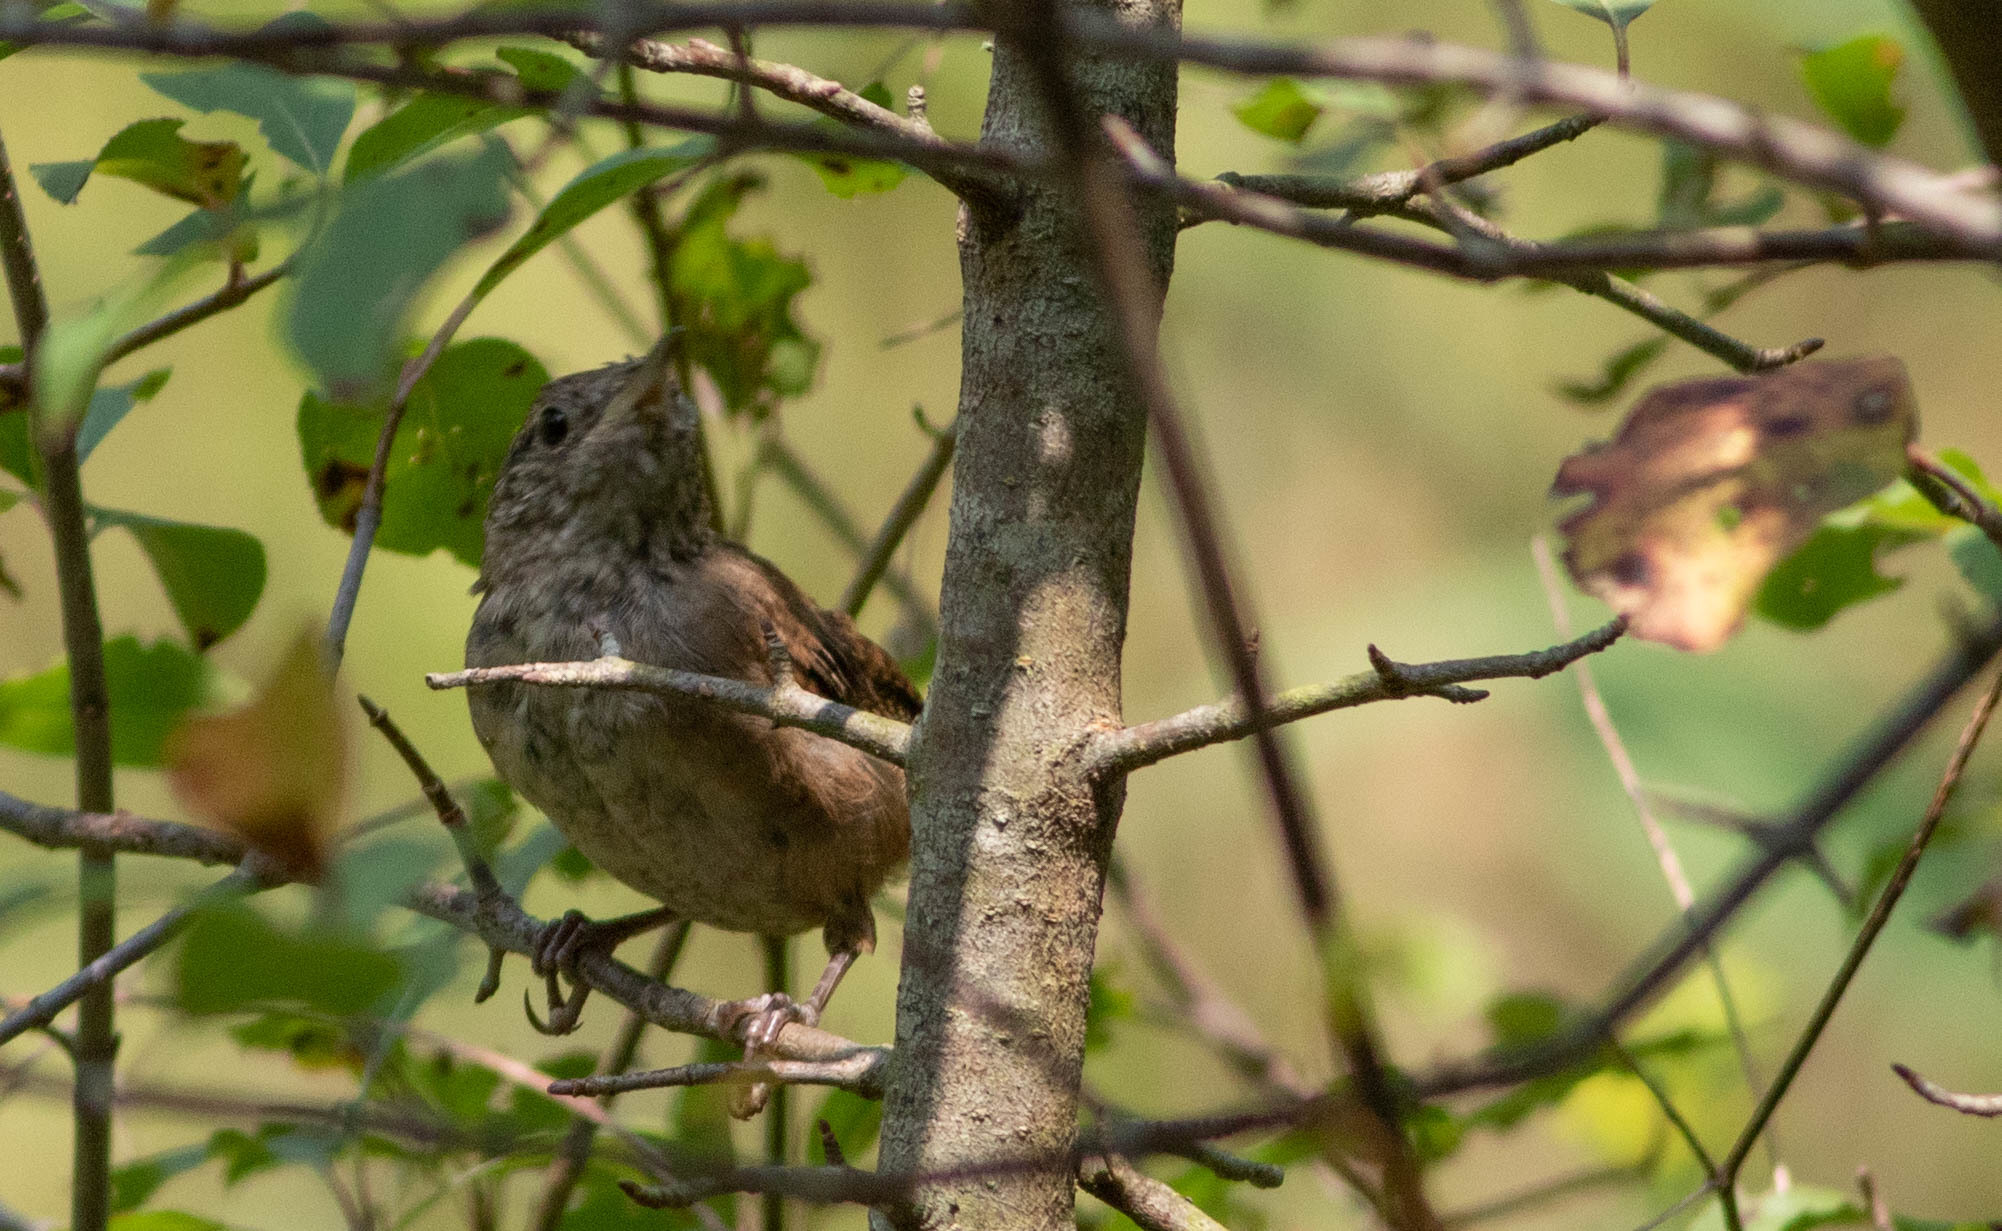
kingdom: Animalia
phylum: Chordata
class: Aves
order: Passeriformes
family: Troglodytidae
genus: Troglodytes
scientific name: Troglodytes aedon
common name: House wren
